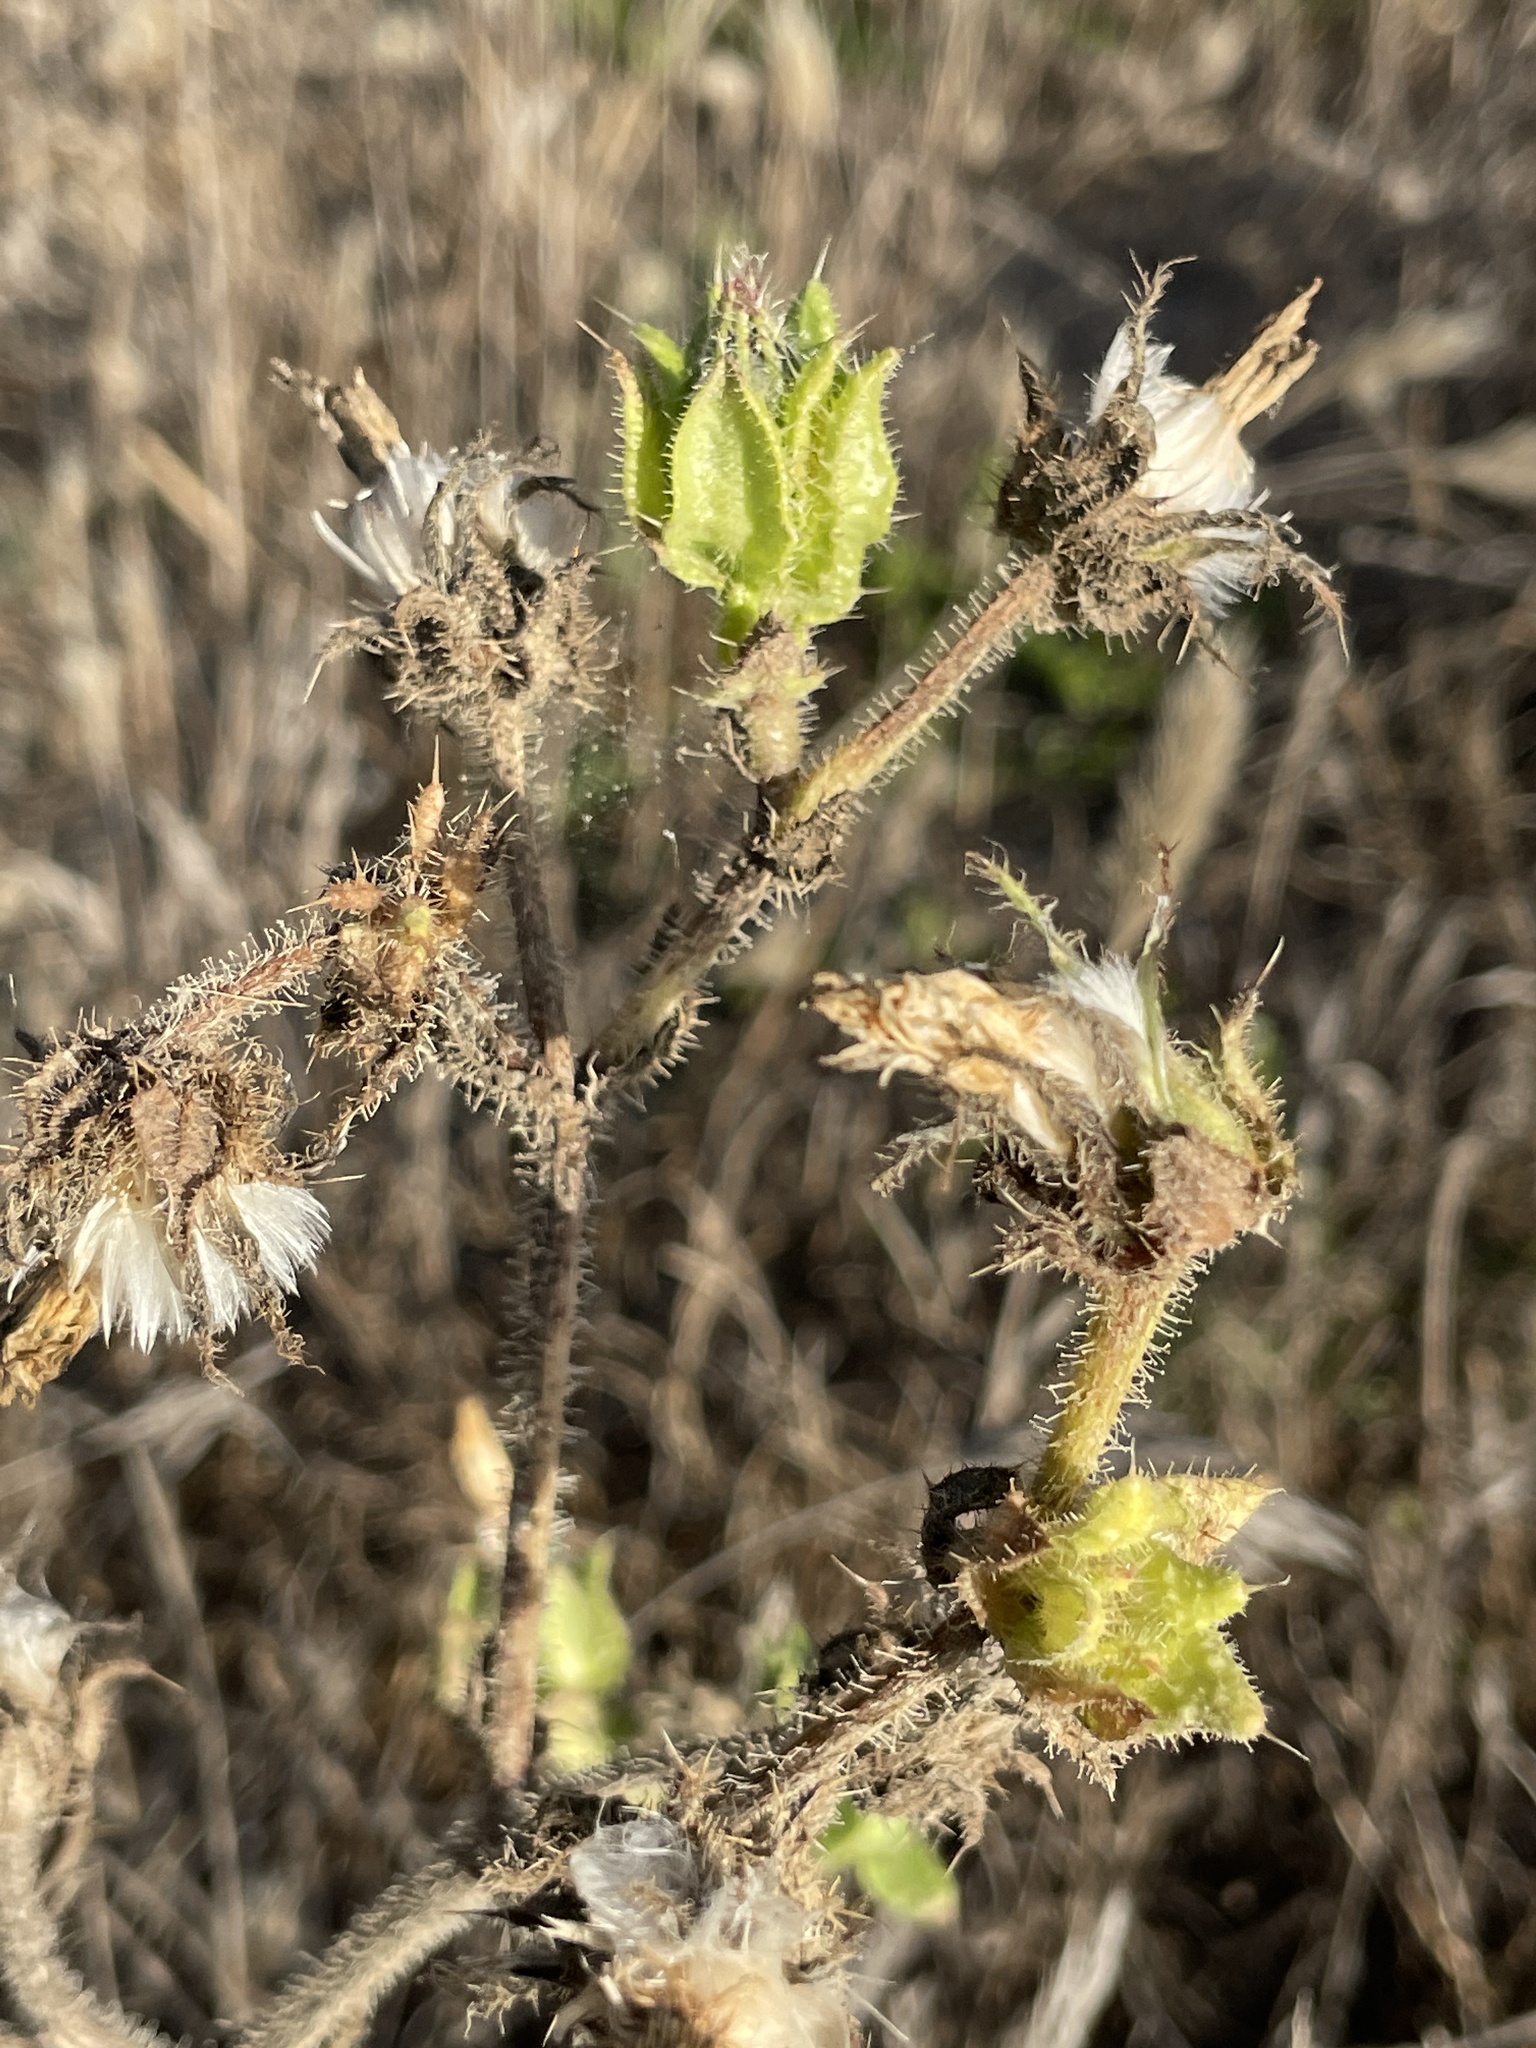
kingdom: Plantae
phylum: Tracheophyta
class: Magnoliopsida
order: Asterales
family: Asteraceae
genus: Helminthotheca
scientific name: Helminthotheca echioides
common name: Ox-tongue
